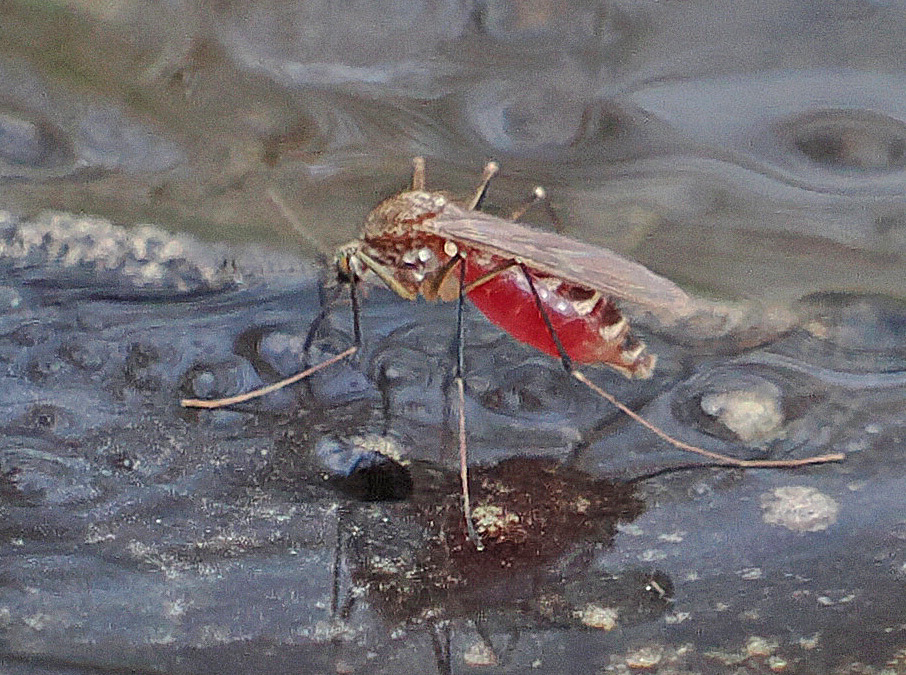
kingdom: Animalia
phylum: Arthropoda
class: Insecta
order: Diptera
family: Culicidae
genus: Culex
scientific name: Culex territans
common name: Northern frog-biting mosquito
